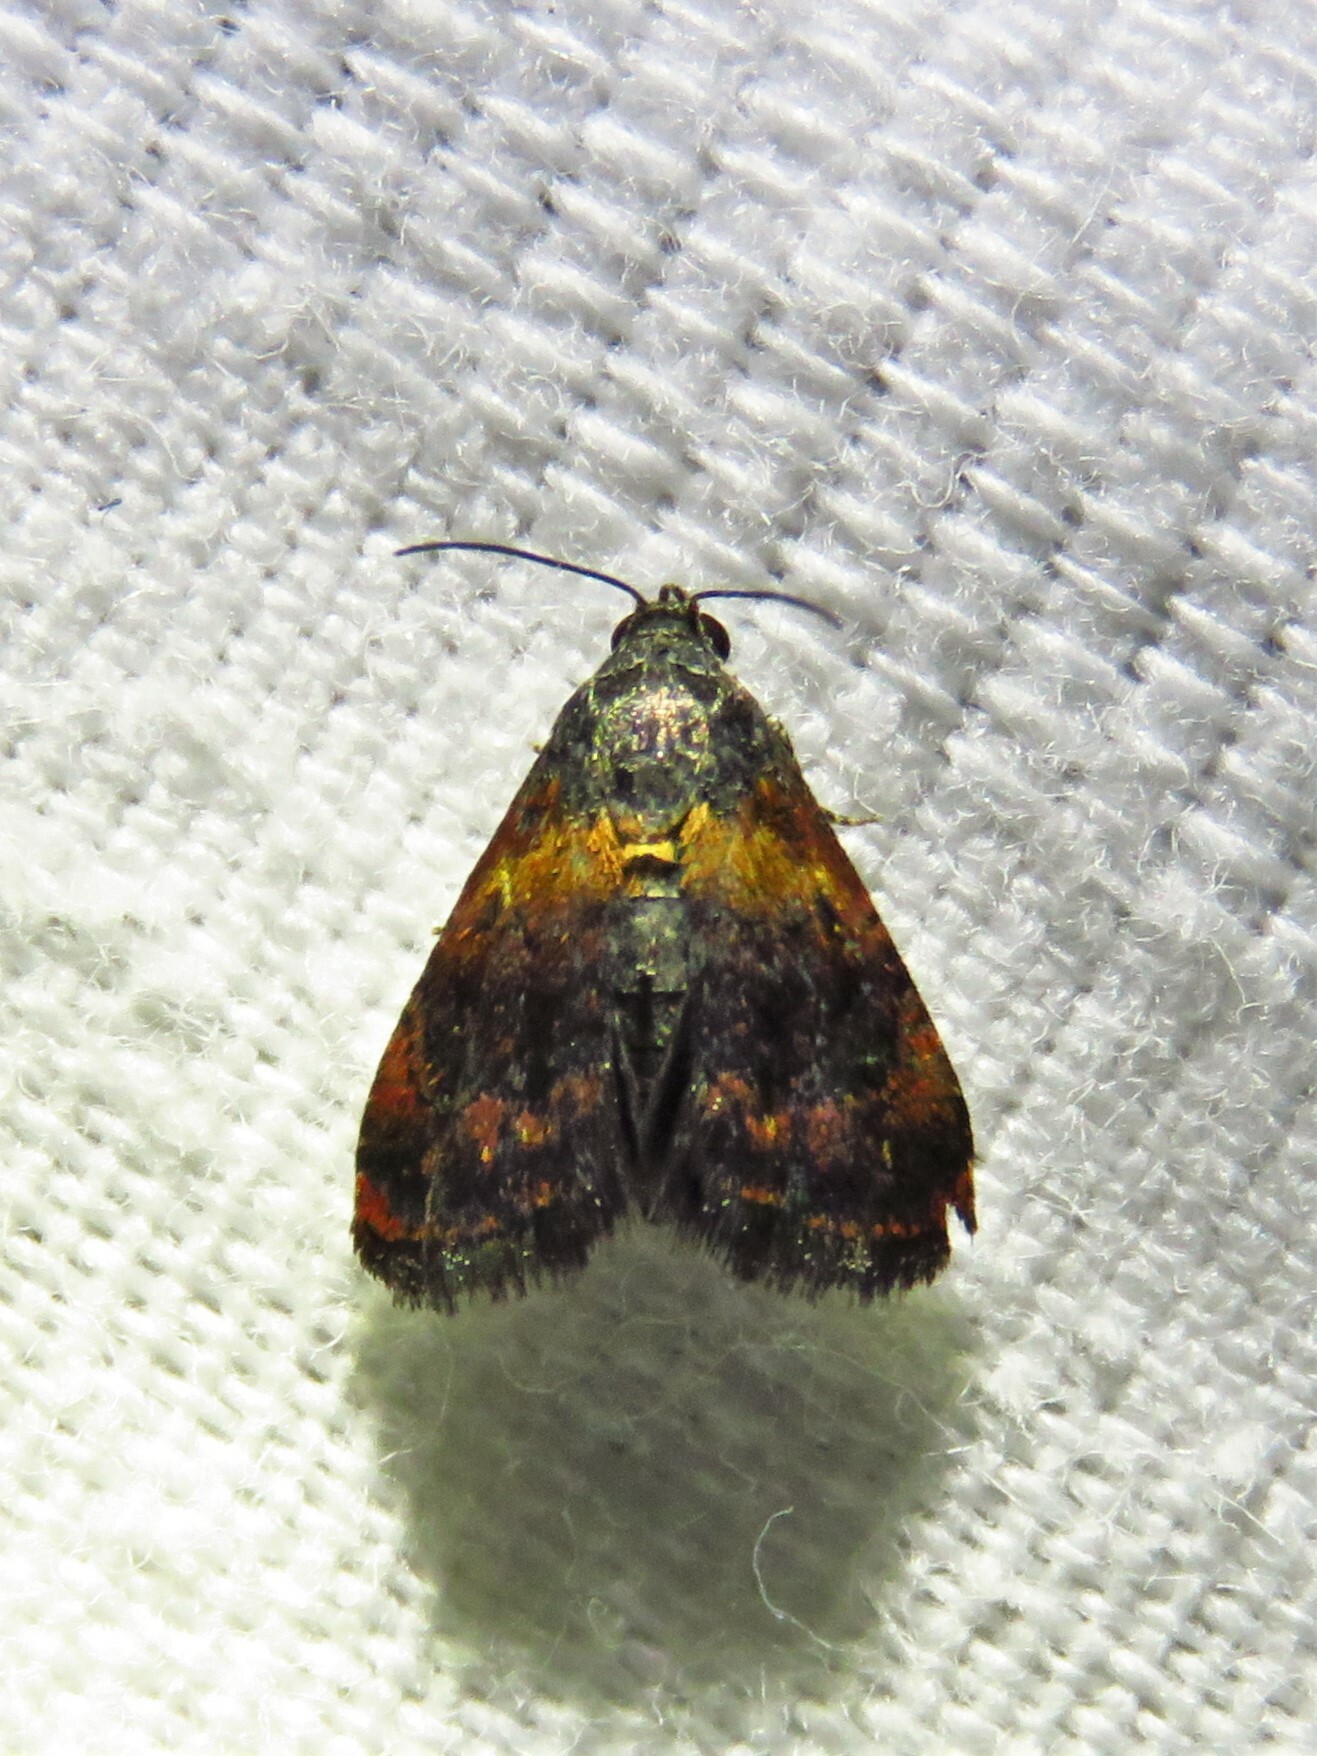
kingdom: Animalia
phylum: Arthropoda
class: Insecta
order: Lepidoptera
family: Noctuidae
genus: Tripudia
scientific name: Tripudia flavofasciata
